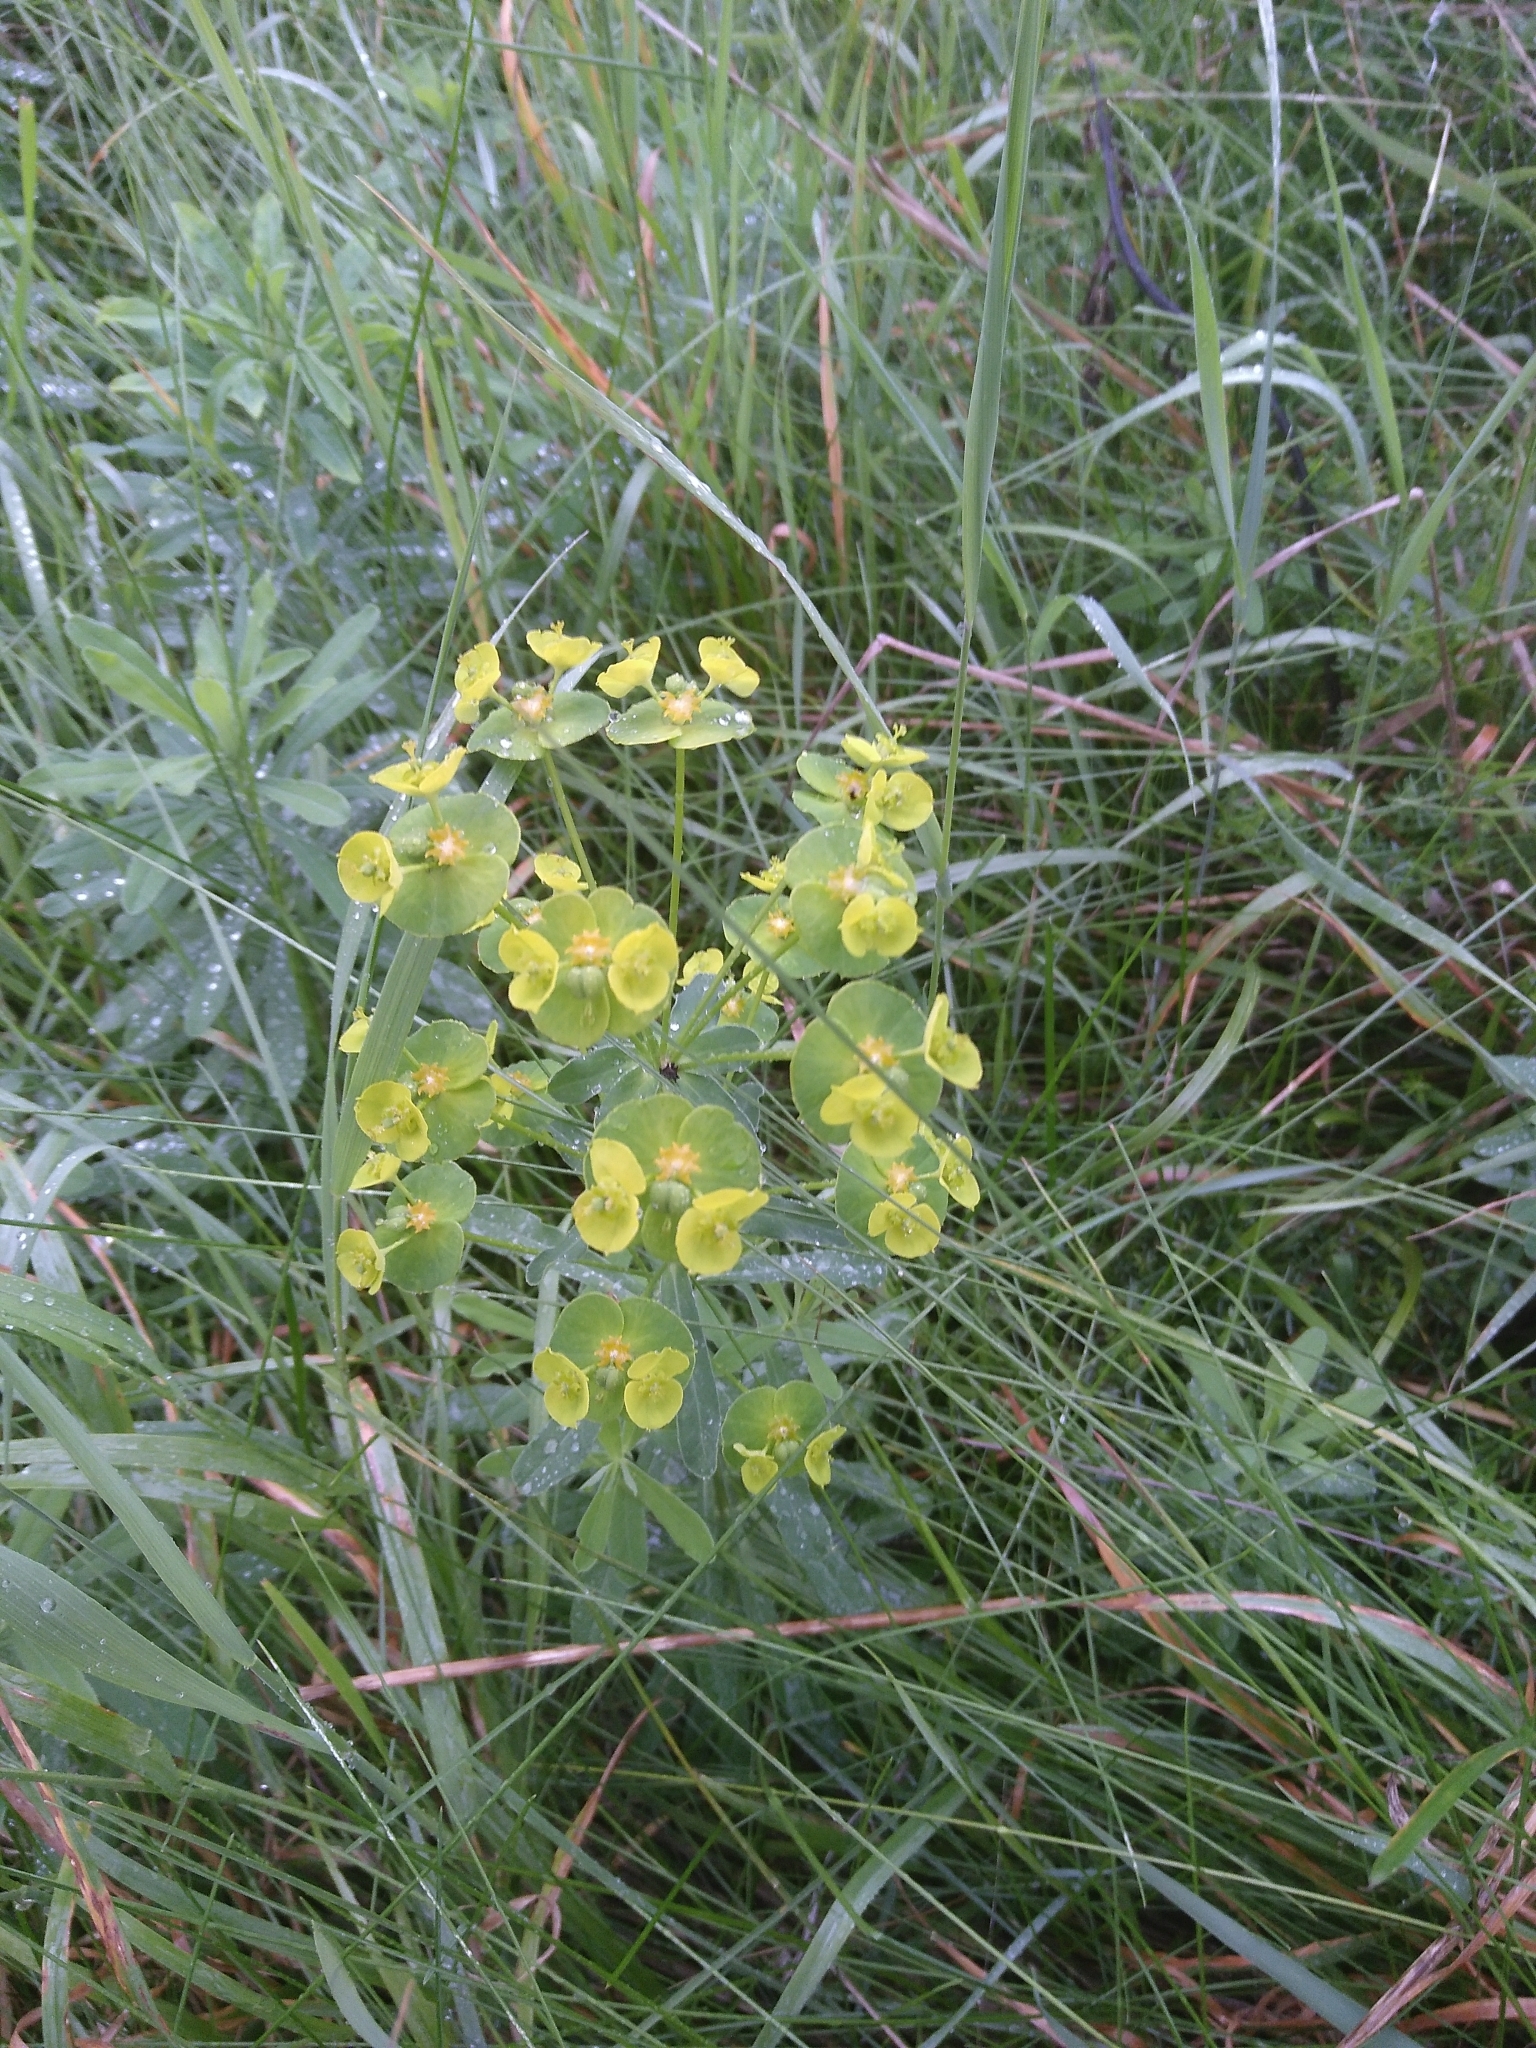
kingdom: Plantae
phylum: Tracheophyta
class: Magnoliopsida
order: Malpighiales
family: Euphorbiaceae
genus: Euphorbia
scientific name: Euphorbia esula
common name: Leafy spurge
